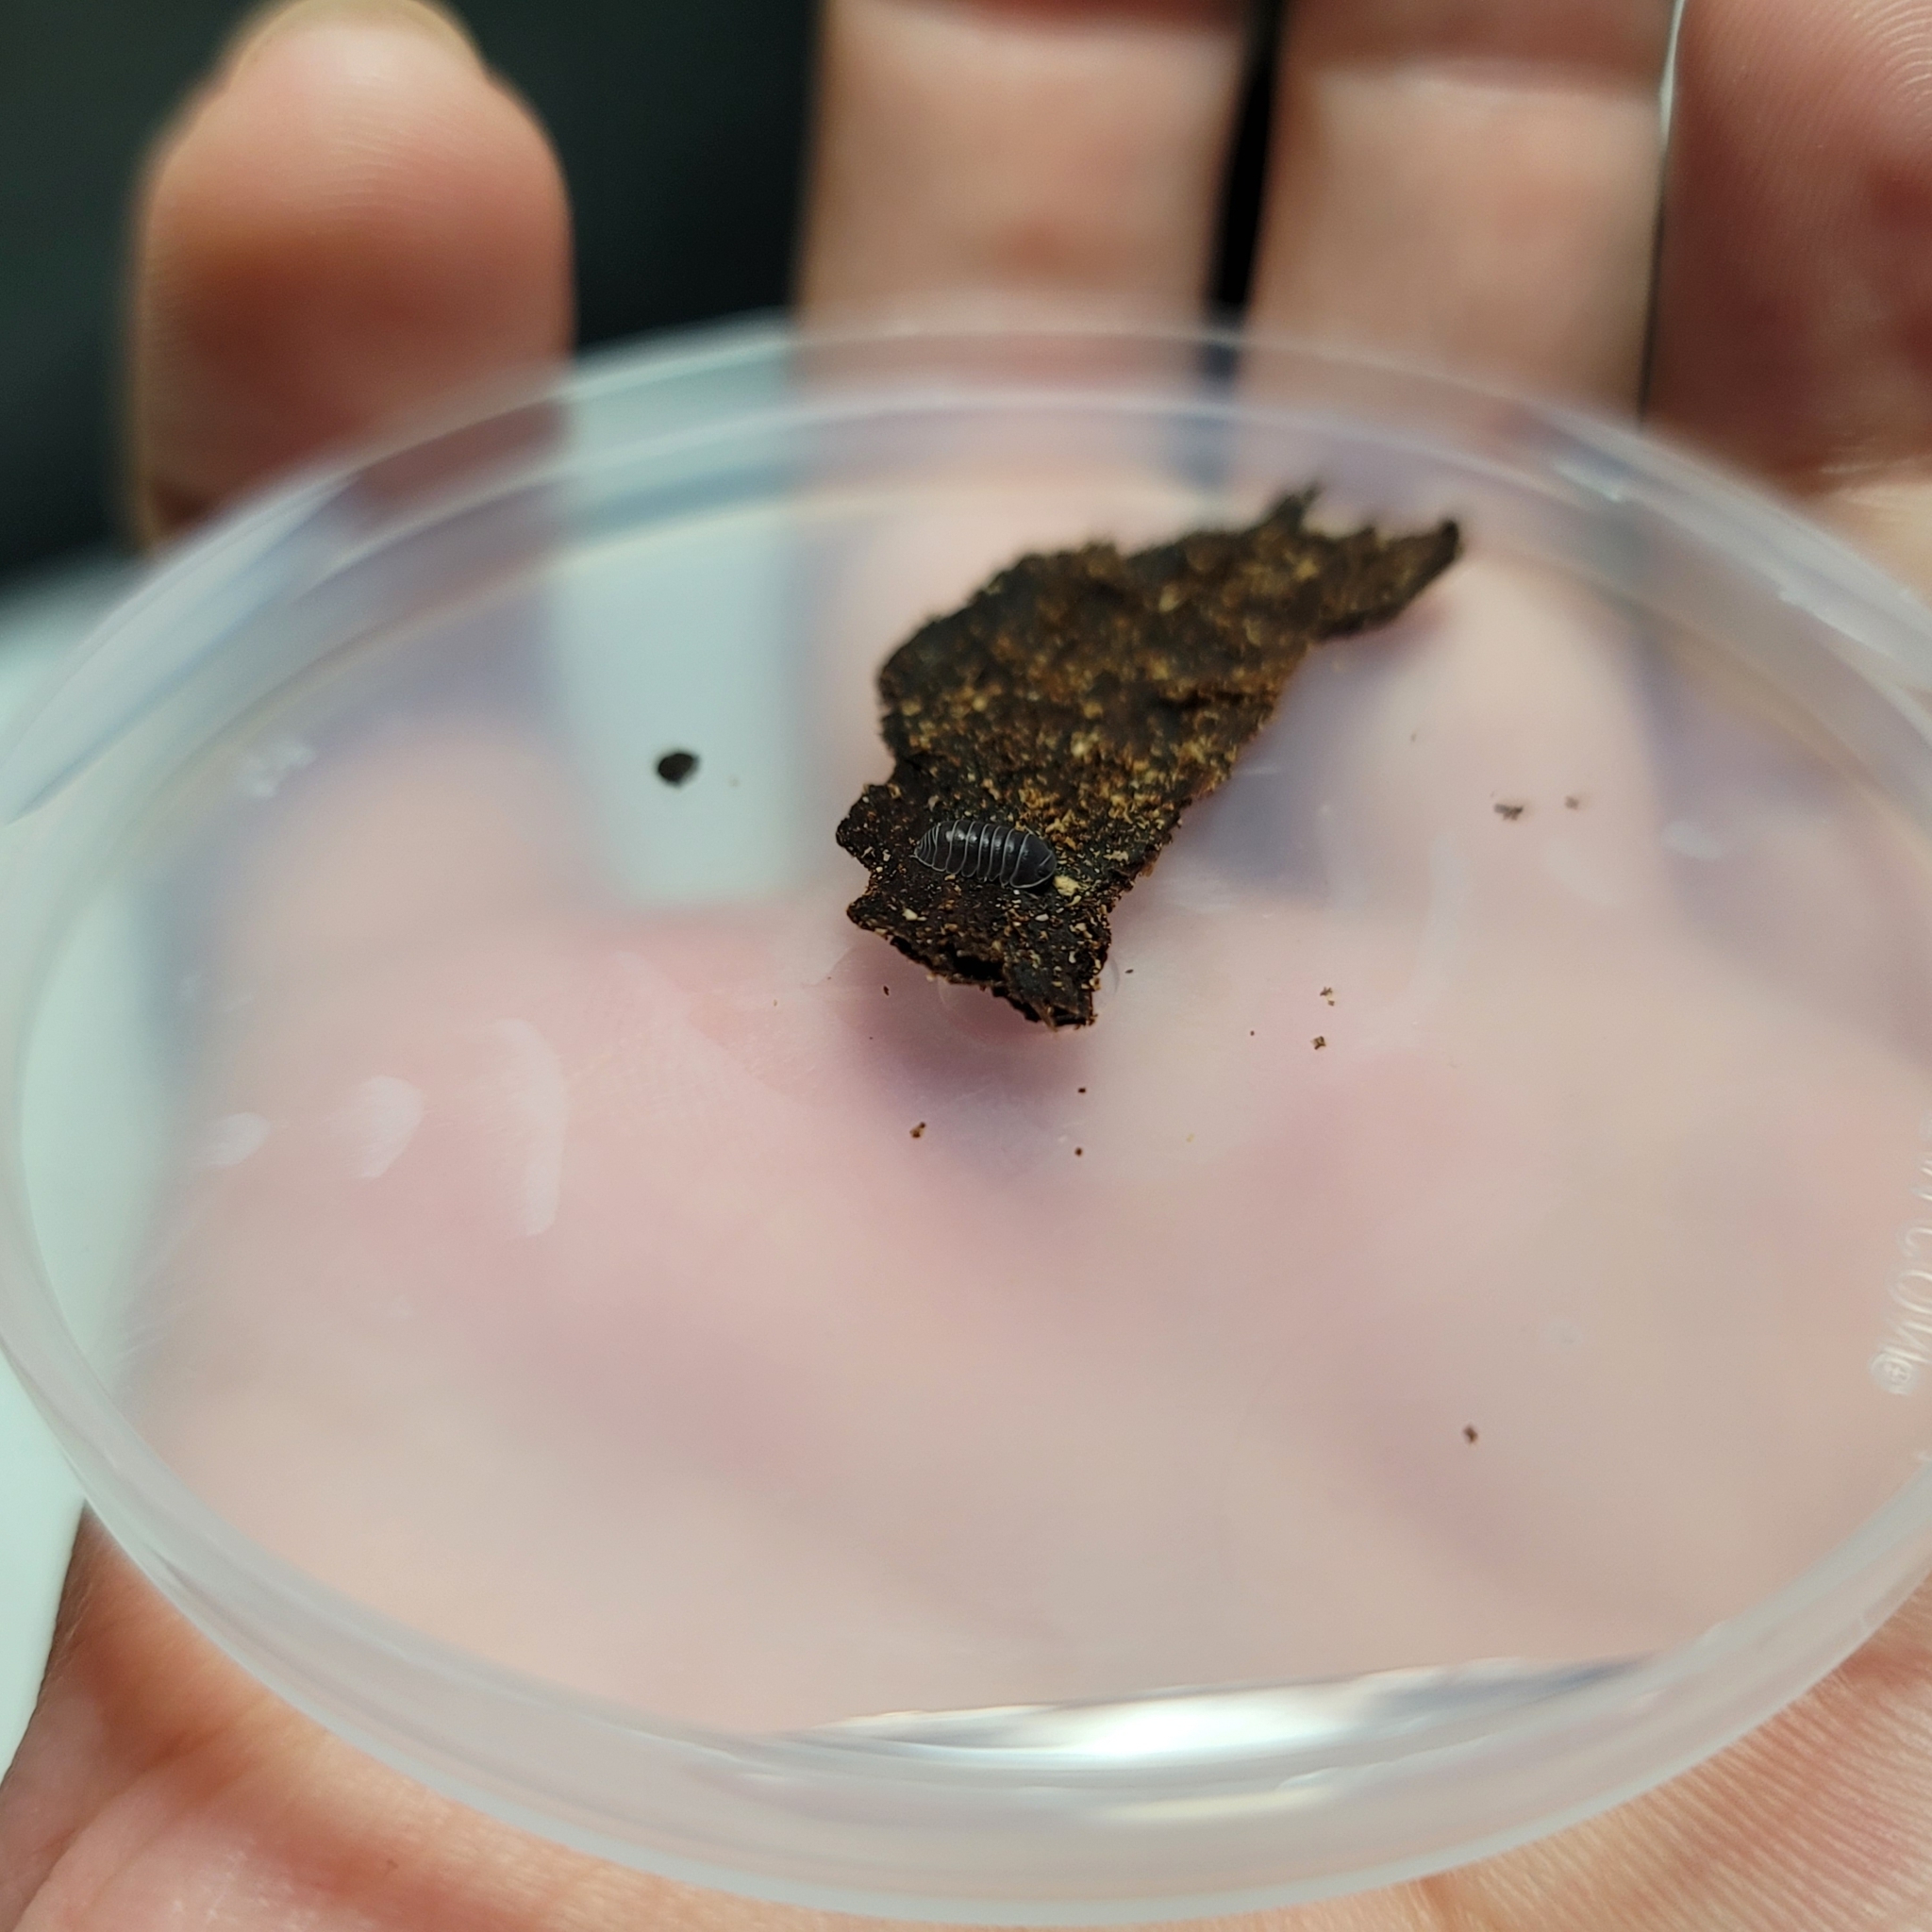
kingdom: Animalia
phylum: Arthropoda
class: Malacostraca
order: Isopoda
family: Armadillidae
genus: Venezillo
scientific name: Venezillo pisum
